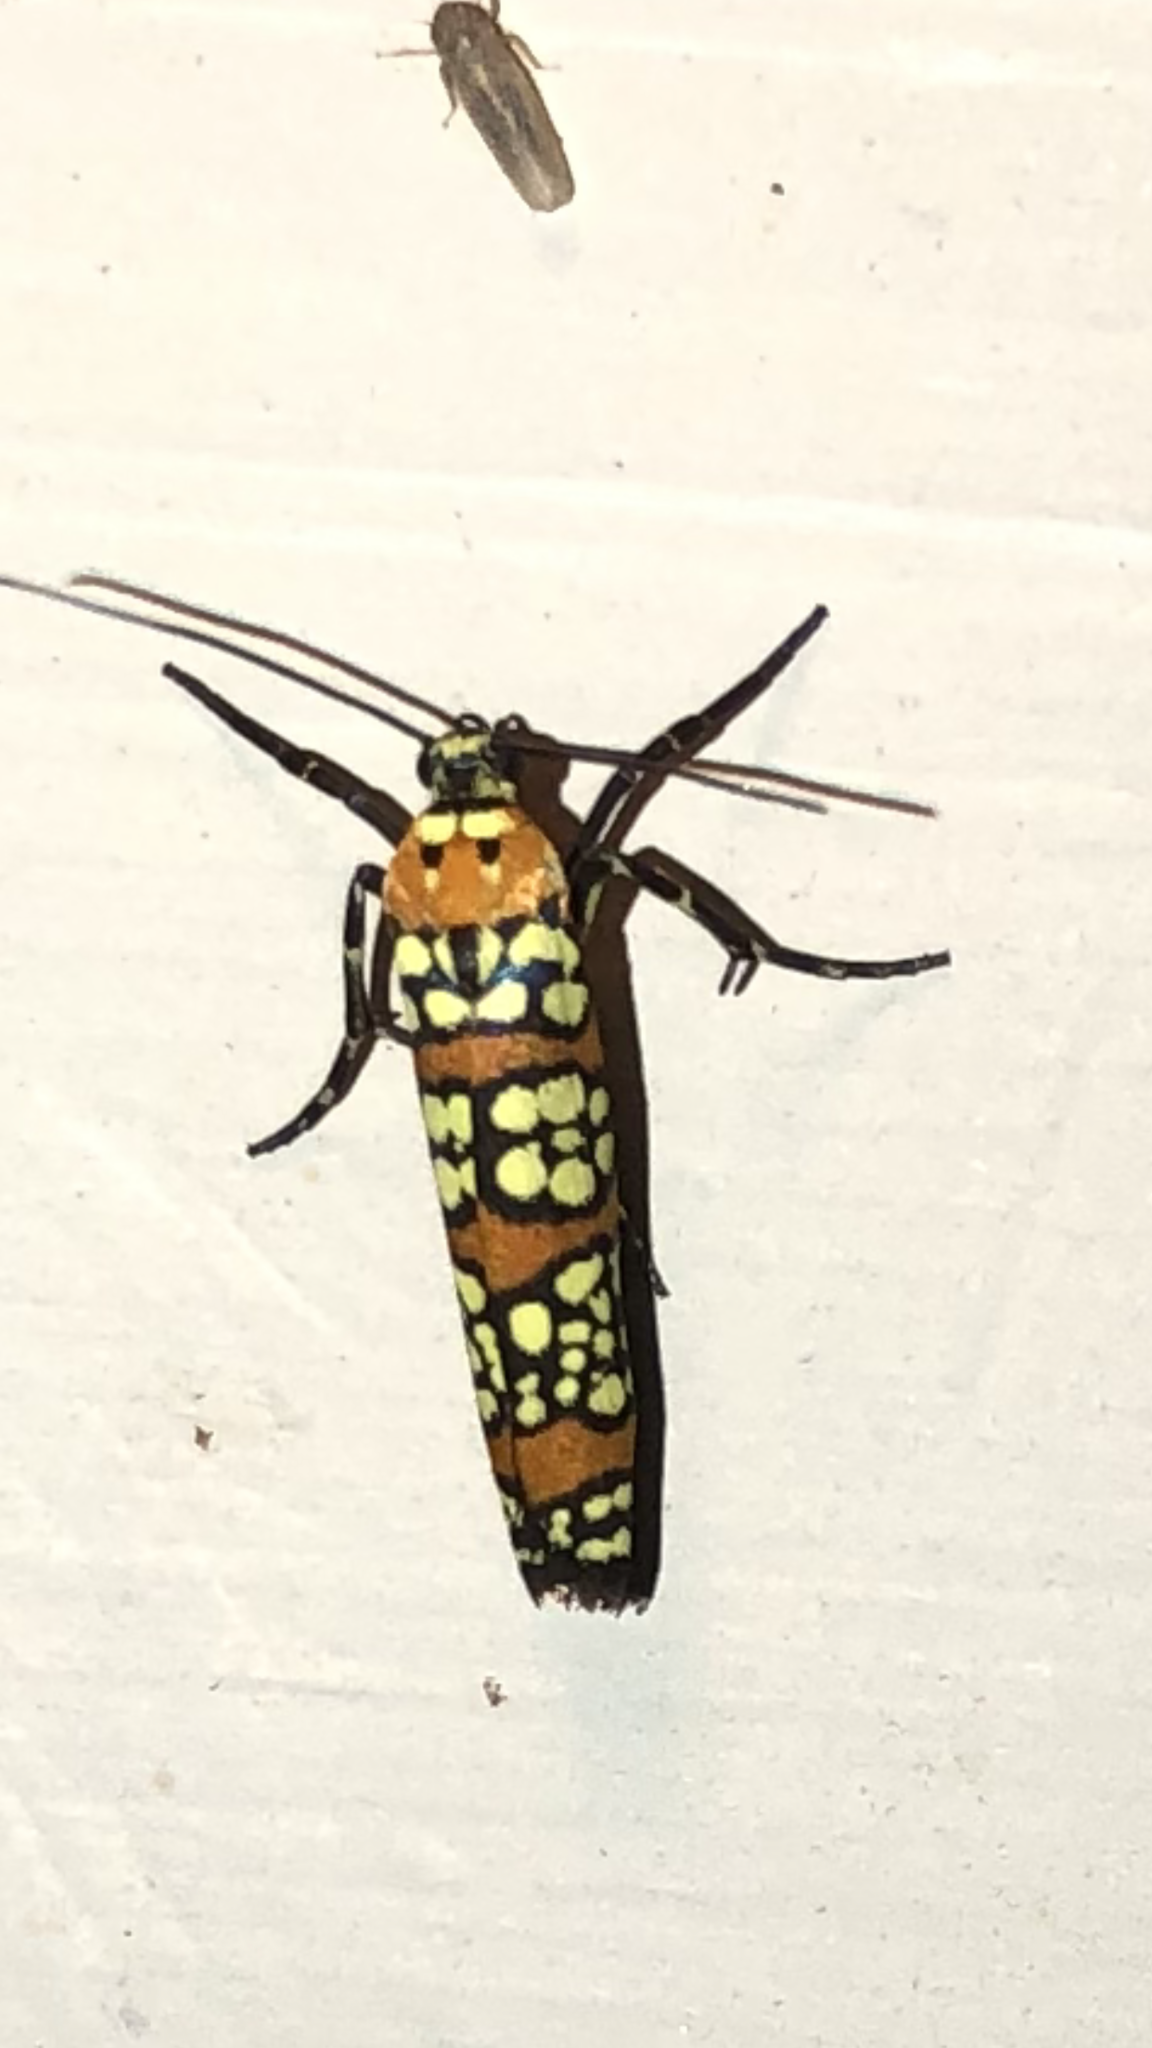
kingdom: Animalia
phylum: Arthropoda
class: Insecta
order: Lepidoptera
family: Attevidae
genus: Atteva
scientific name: Atteva punctella
